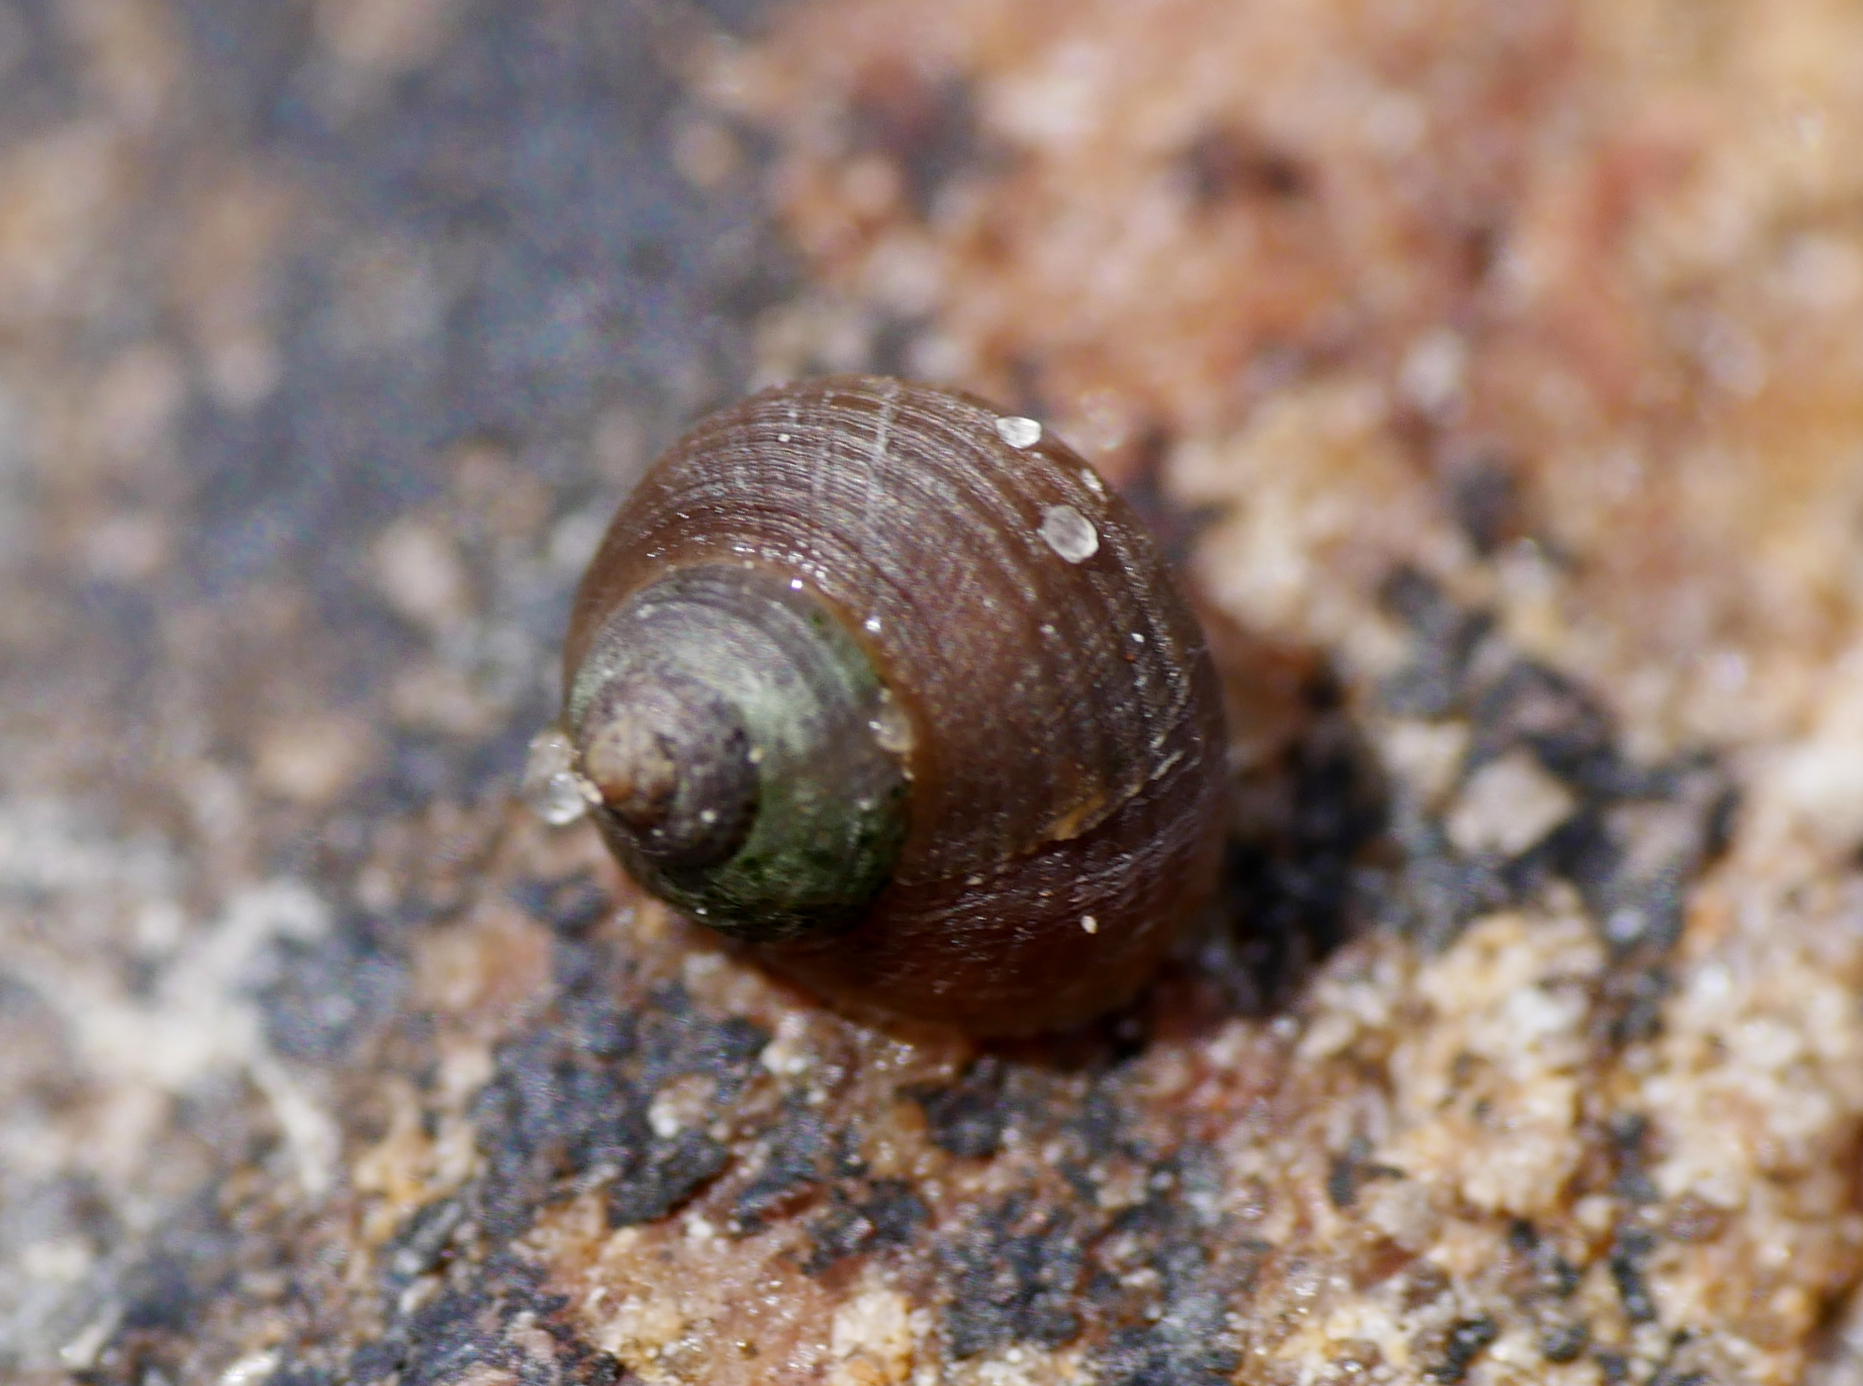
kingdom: Animalia
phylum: Mollusca
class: Gastropoda
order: Littorinimorpha
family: Littorinidae
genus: Littorina
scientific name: Littorina
